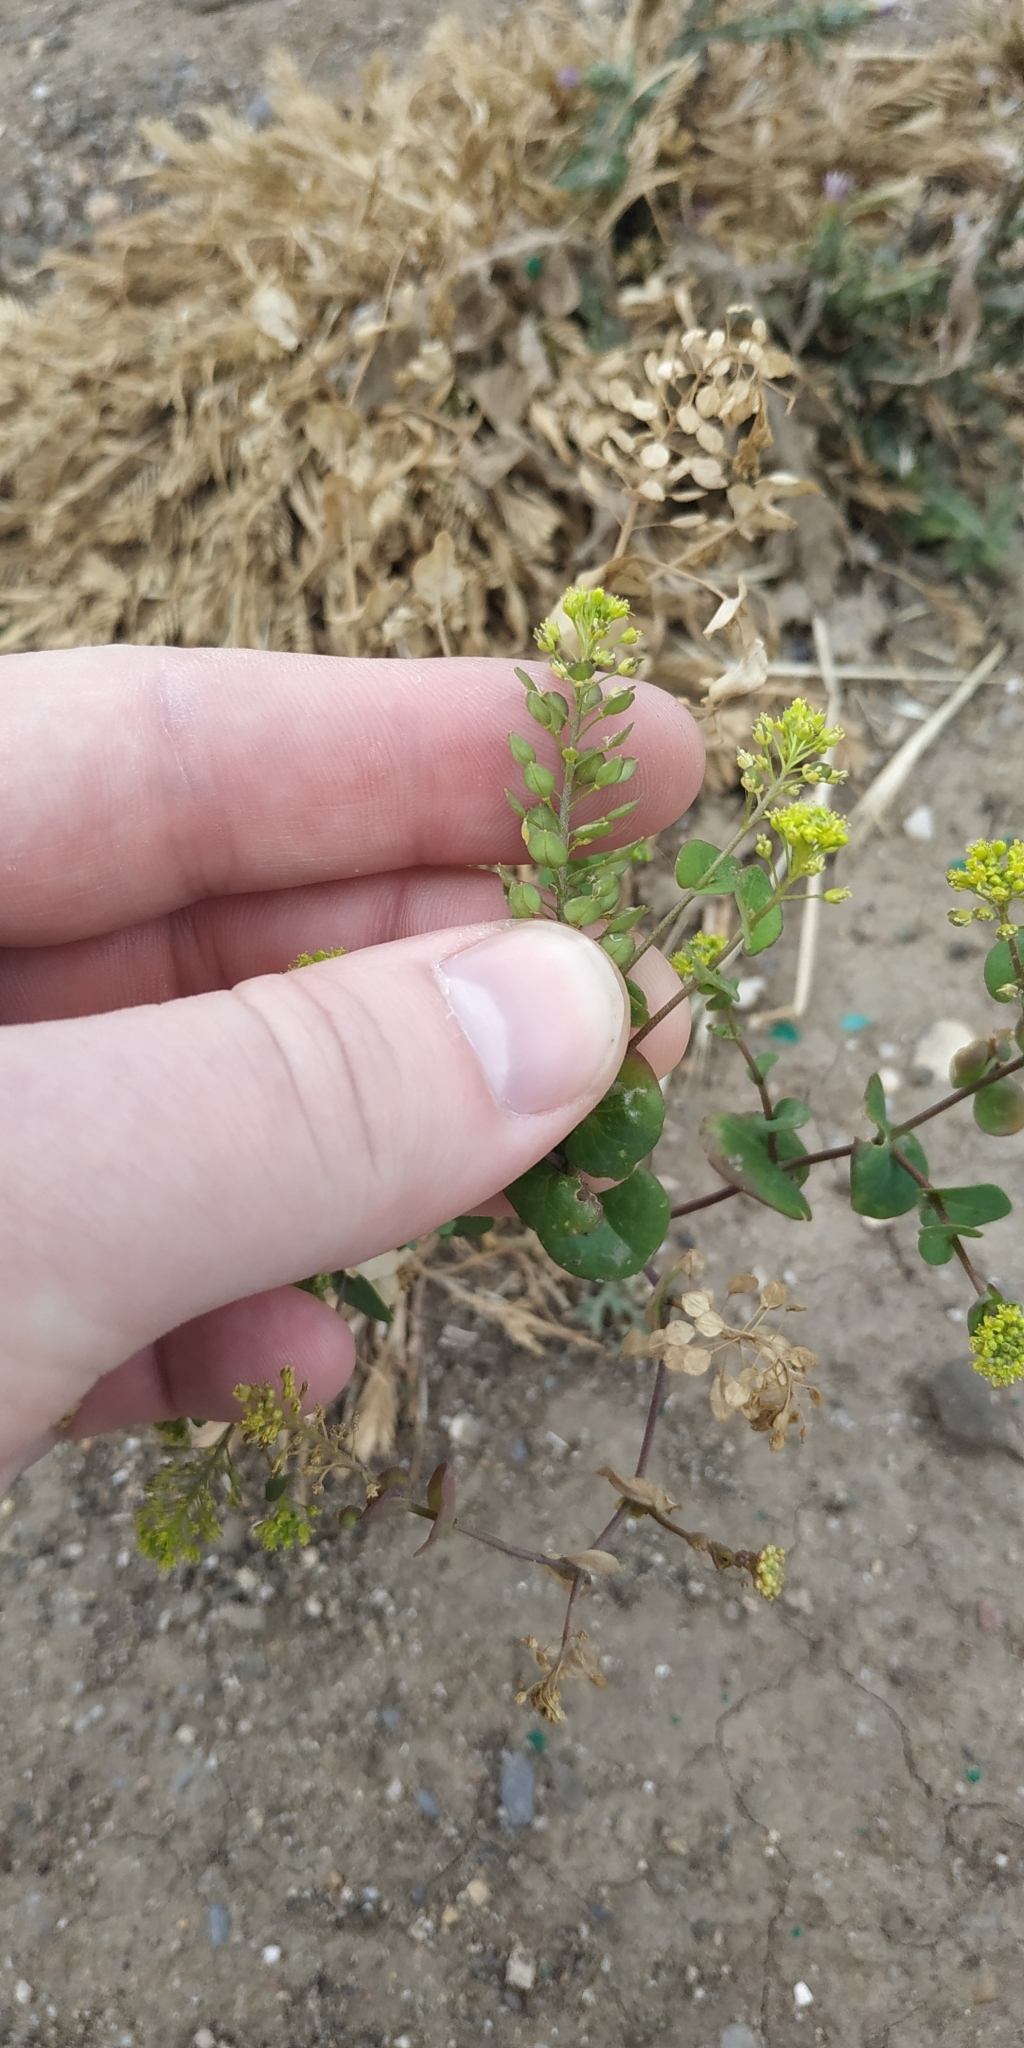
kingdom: Plantae
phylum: Tracheophyta
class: Magnoliopsida
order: Brassicales
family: Brassicaceae
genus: Lepidium
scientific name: Lepidium perfoliatum
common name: Perfoliate pepperwort
